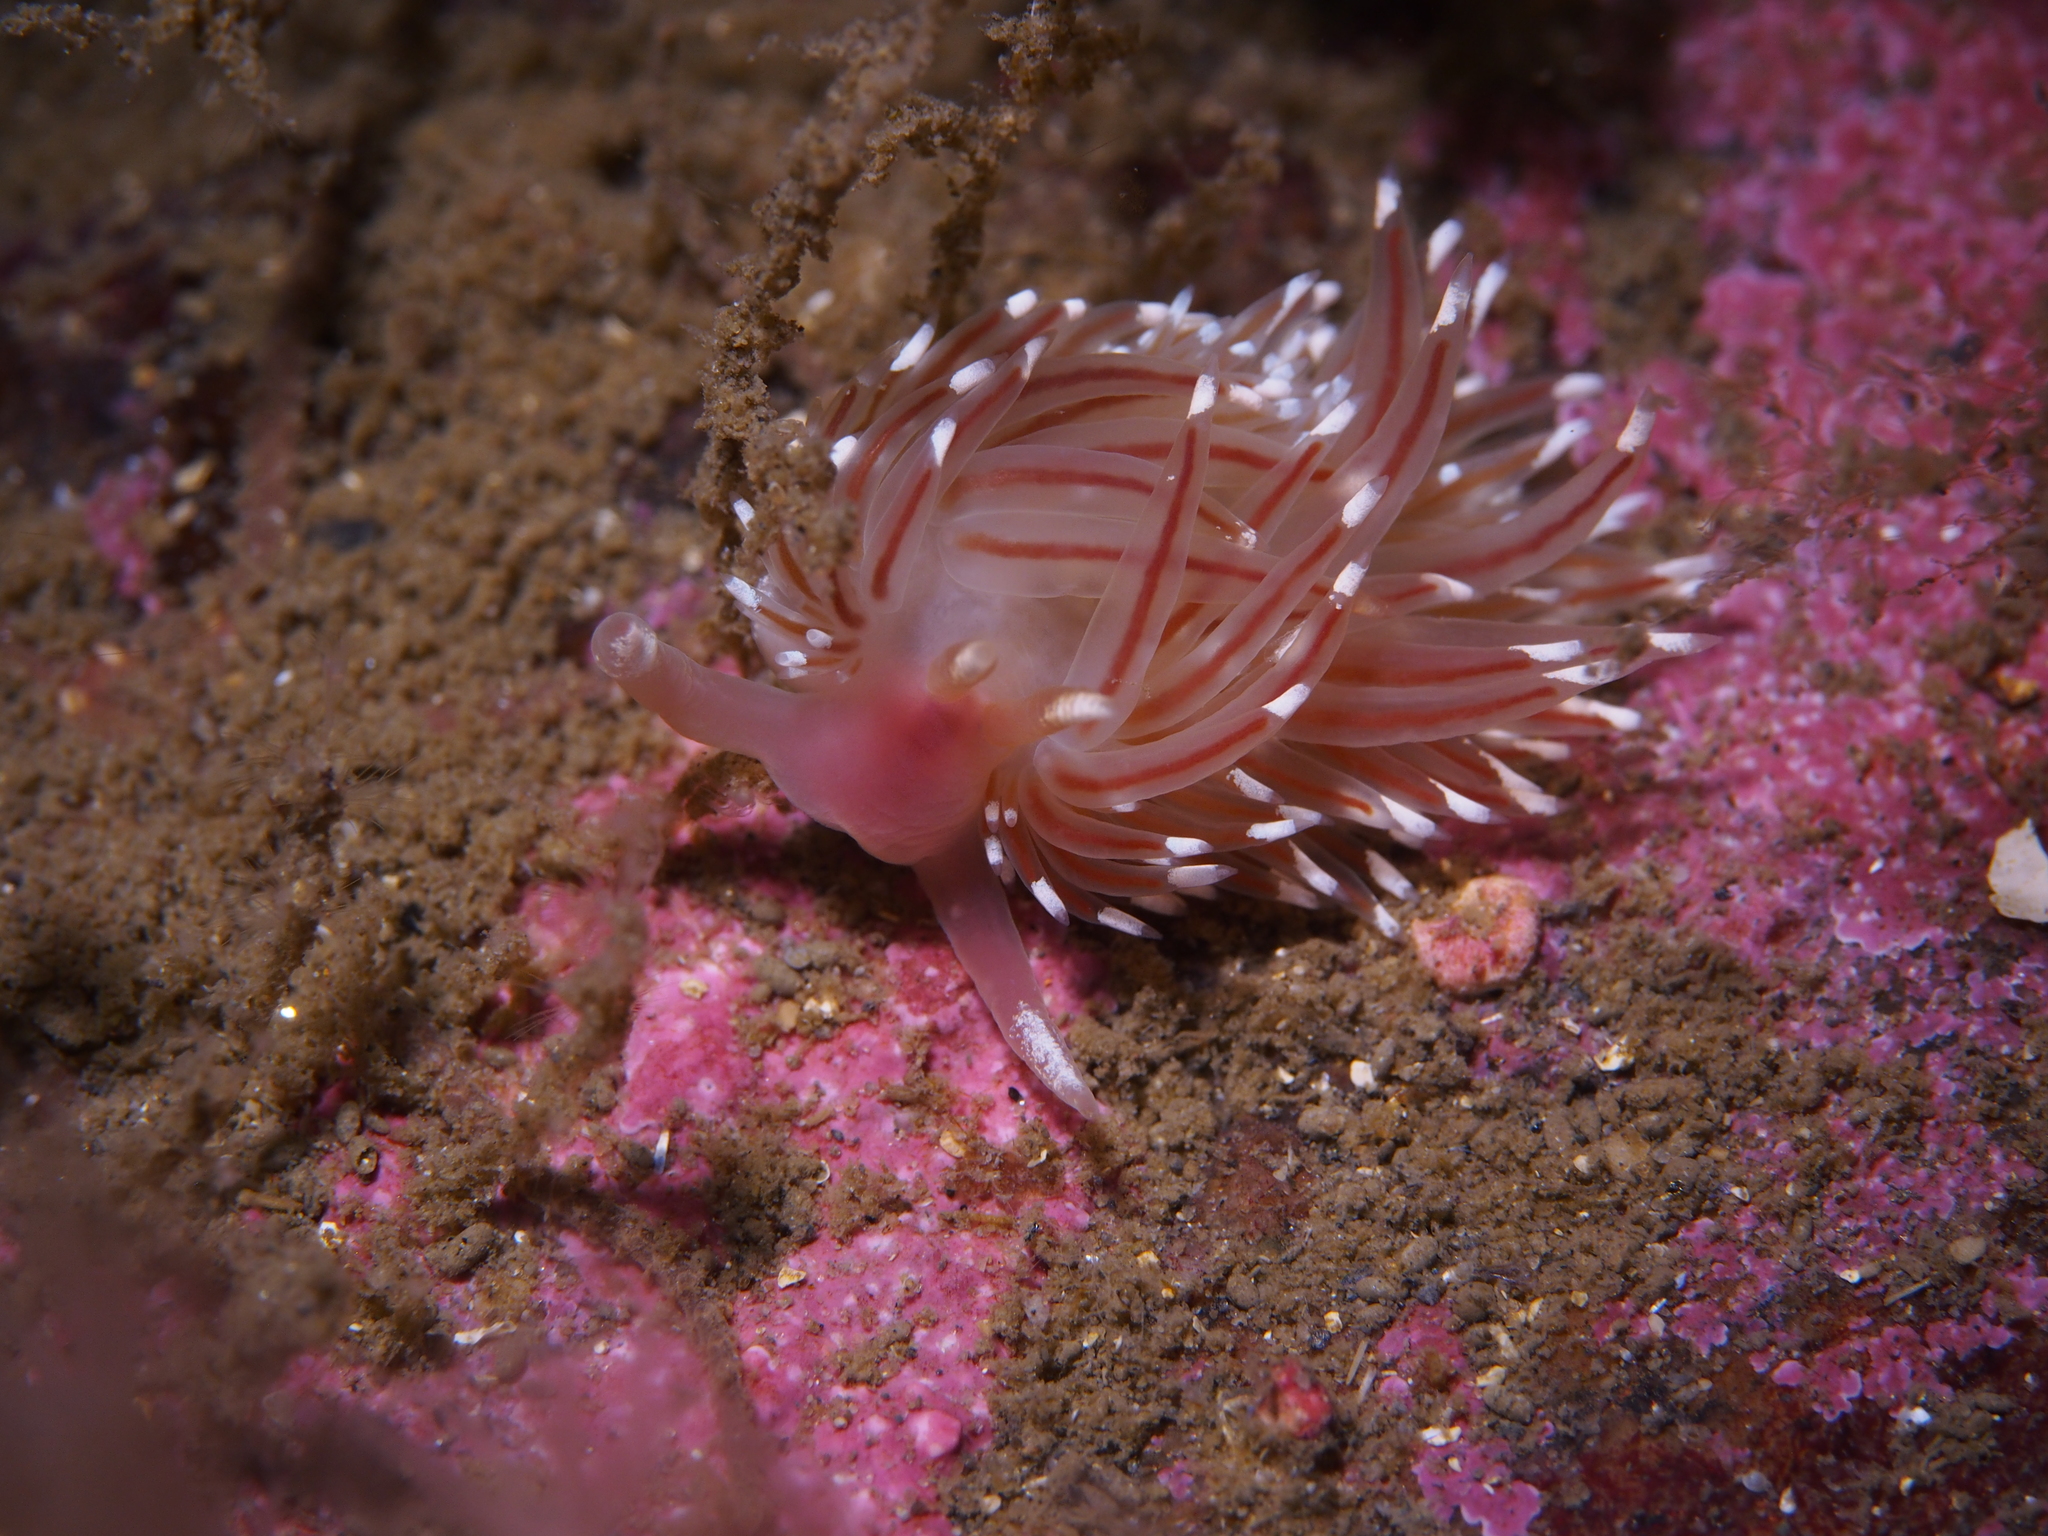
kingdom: Animalia
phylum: Mollusca
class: Gastropoda
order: Nudibranchia
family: Facelinidae
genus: Facelina
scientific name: Facelina bostoniensis
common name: Boston facelina
